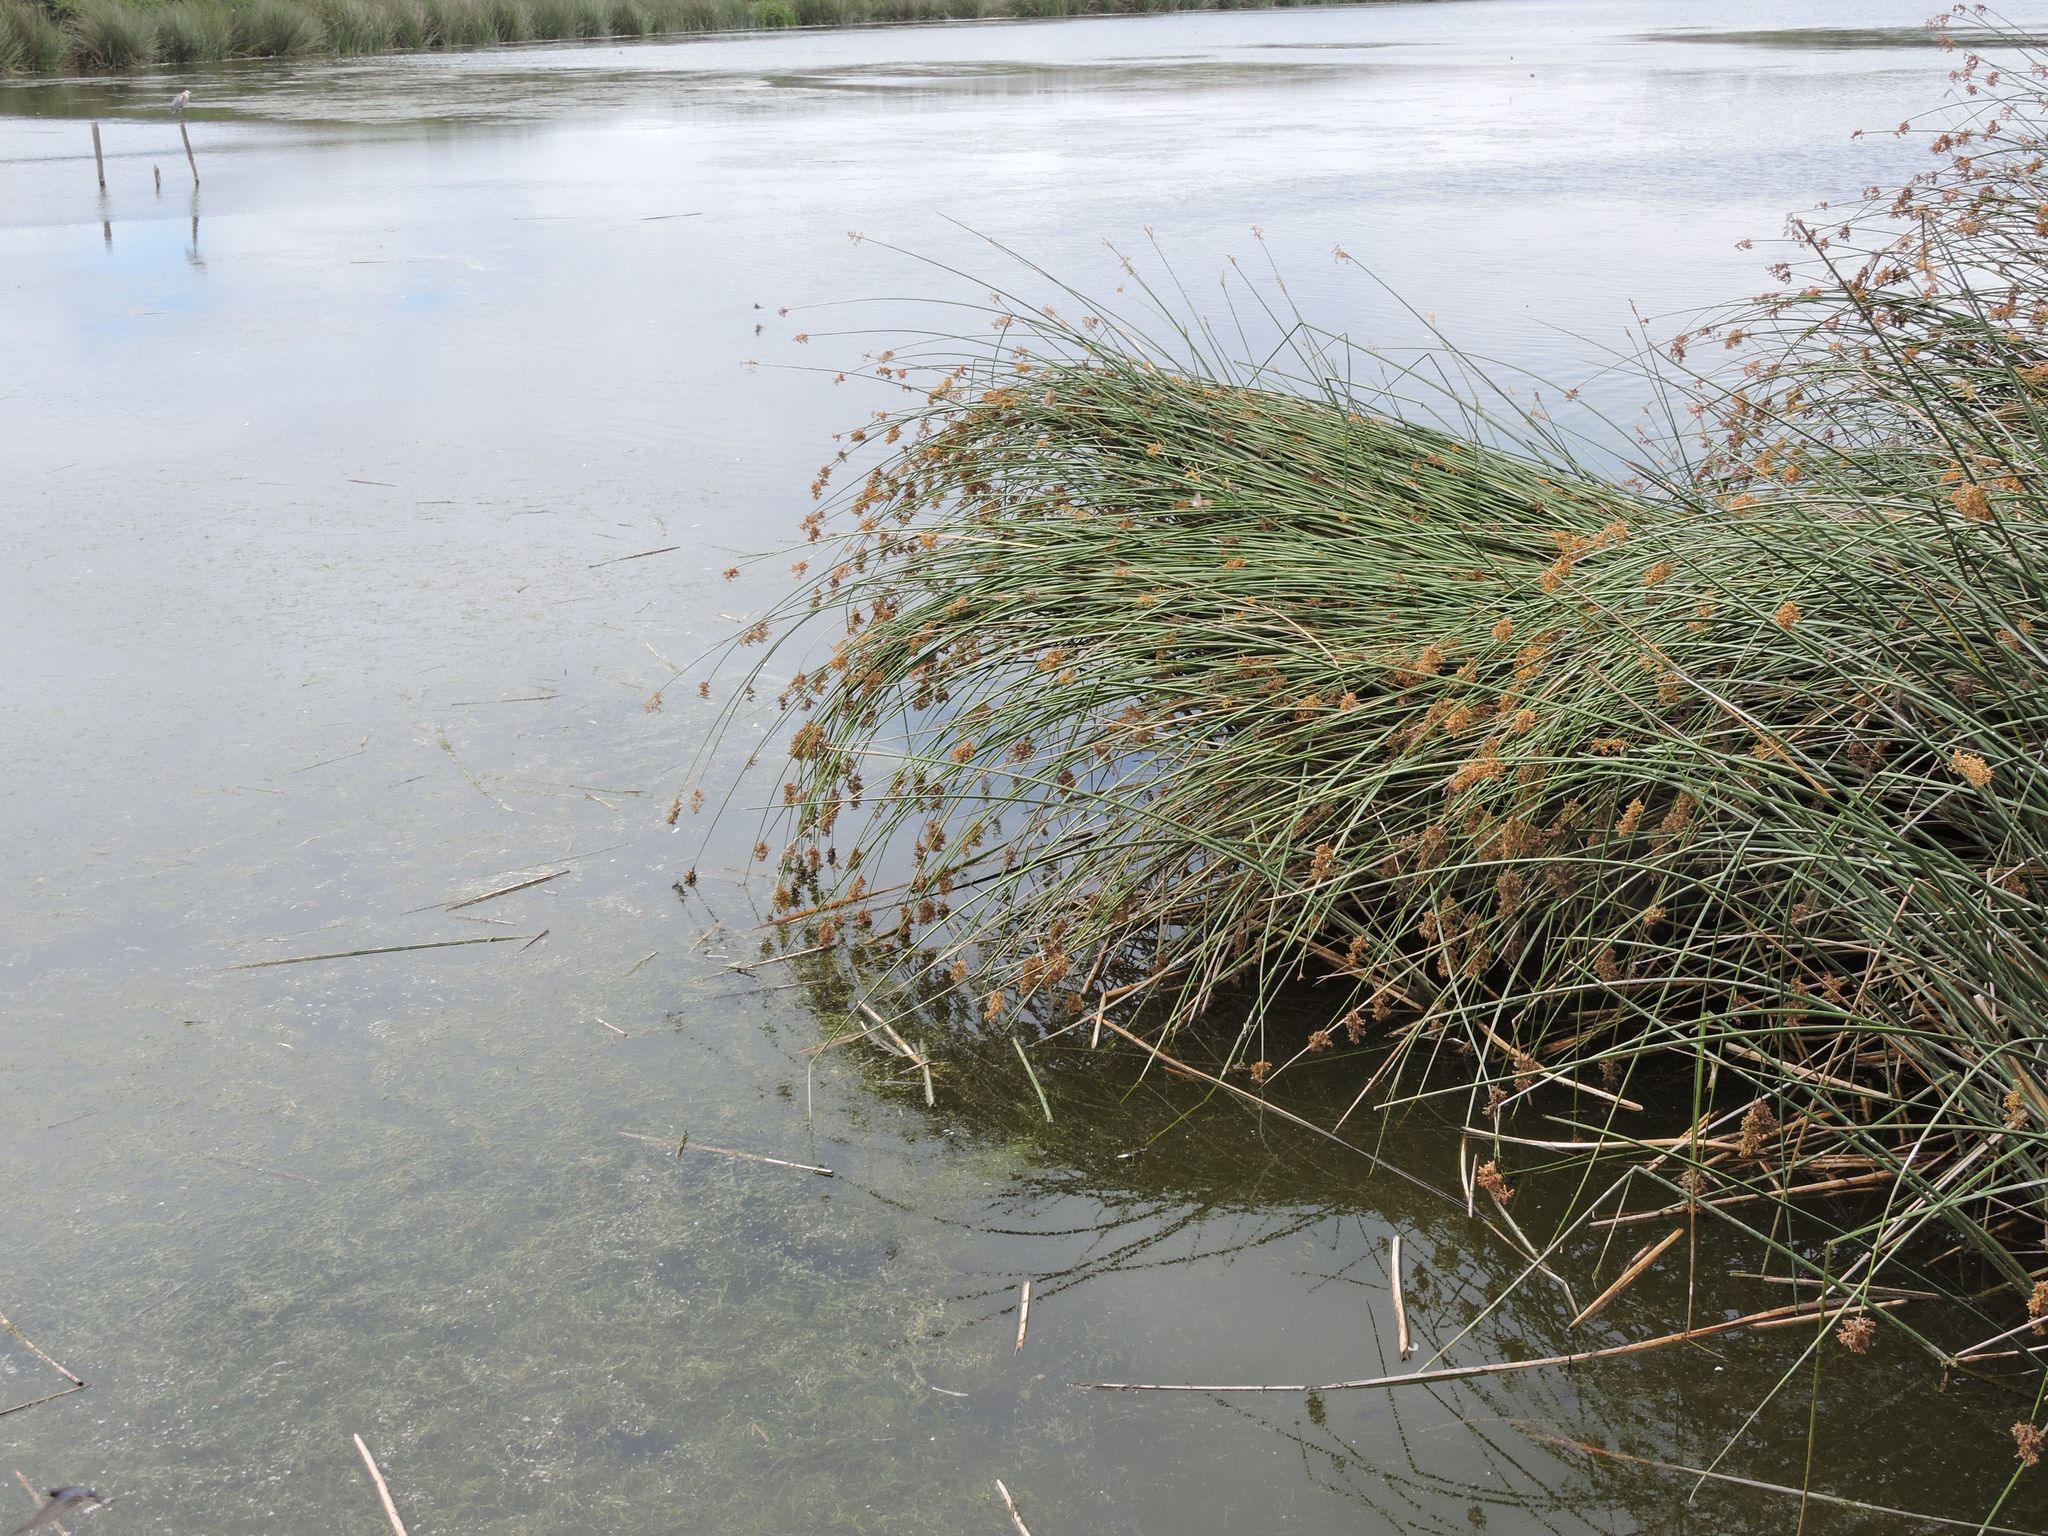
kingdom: Plantae
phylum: Tracheophyta
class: Liliopsida
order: Poales
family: Cyperaceae
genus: Schoenoplectus
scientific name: Schoenoplectus californicus
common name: California bulrush
